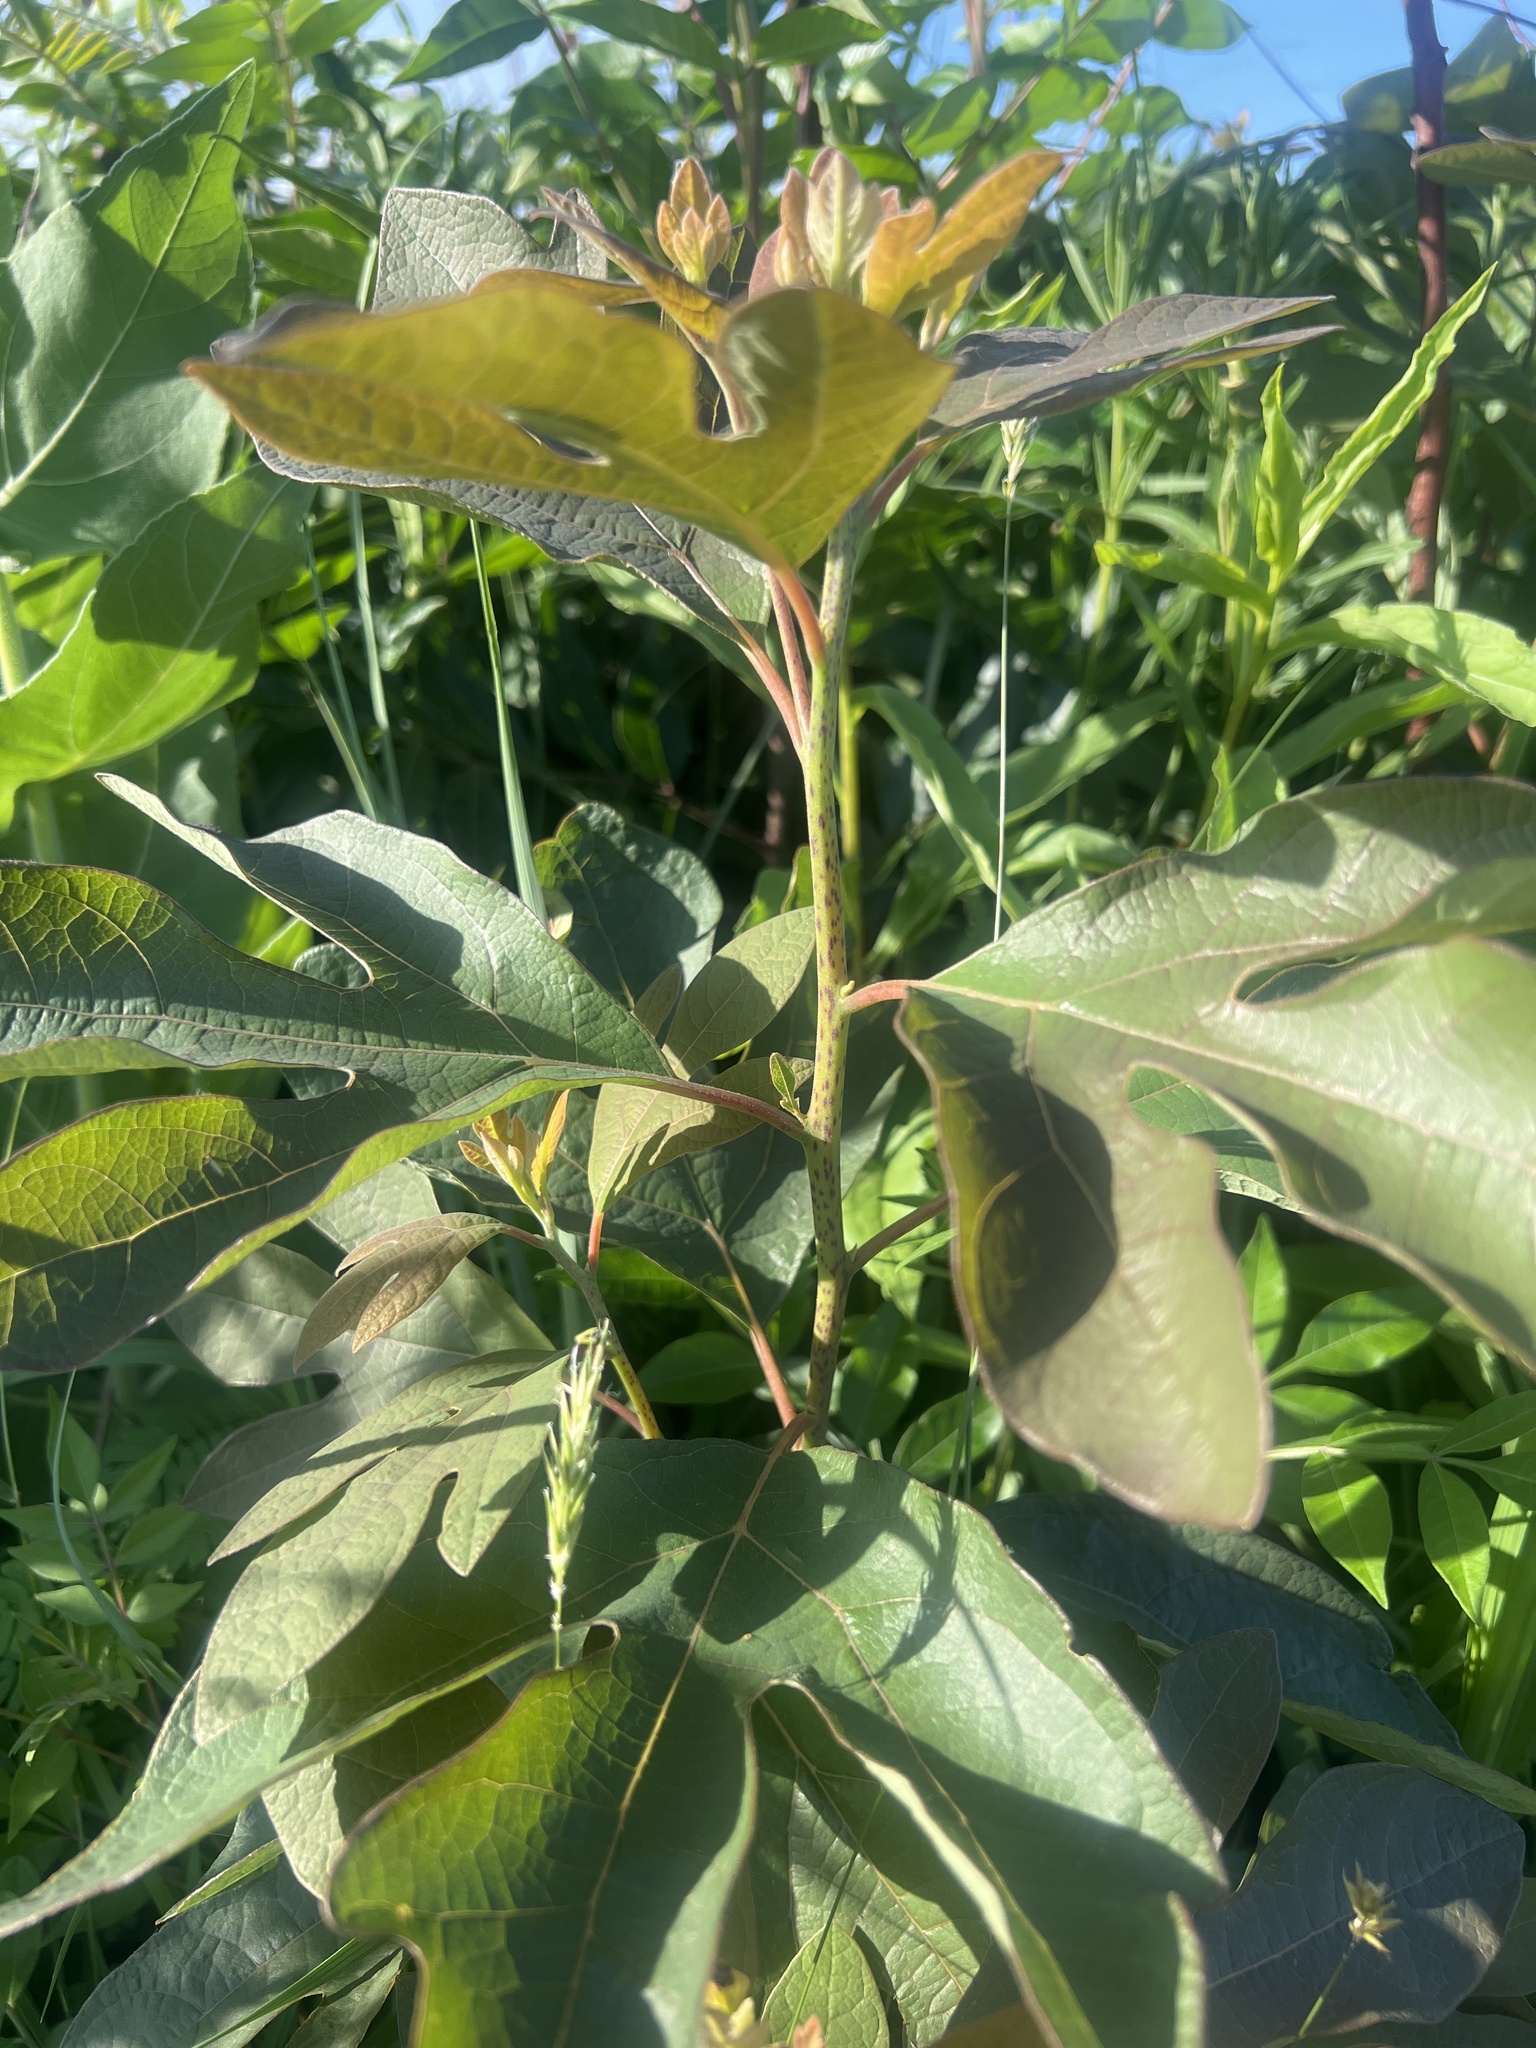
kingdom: Plantae
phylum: Tracheophyta
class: Magnoliopsida
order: Laurales
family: Lauraceae
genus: Sassafras
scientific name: Sassafras albidum
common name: Sassafras
